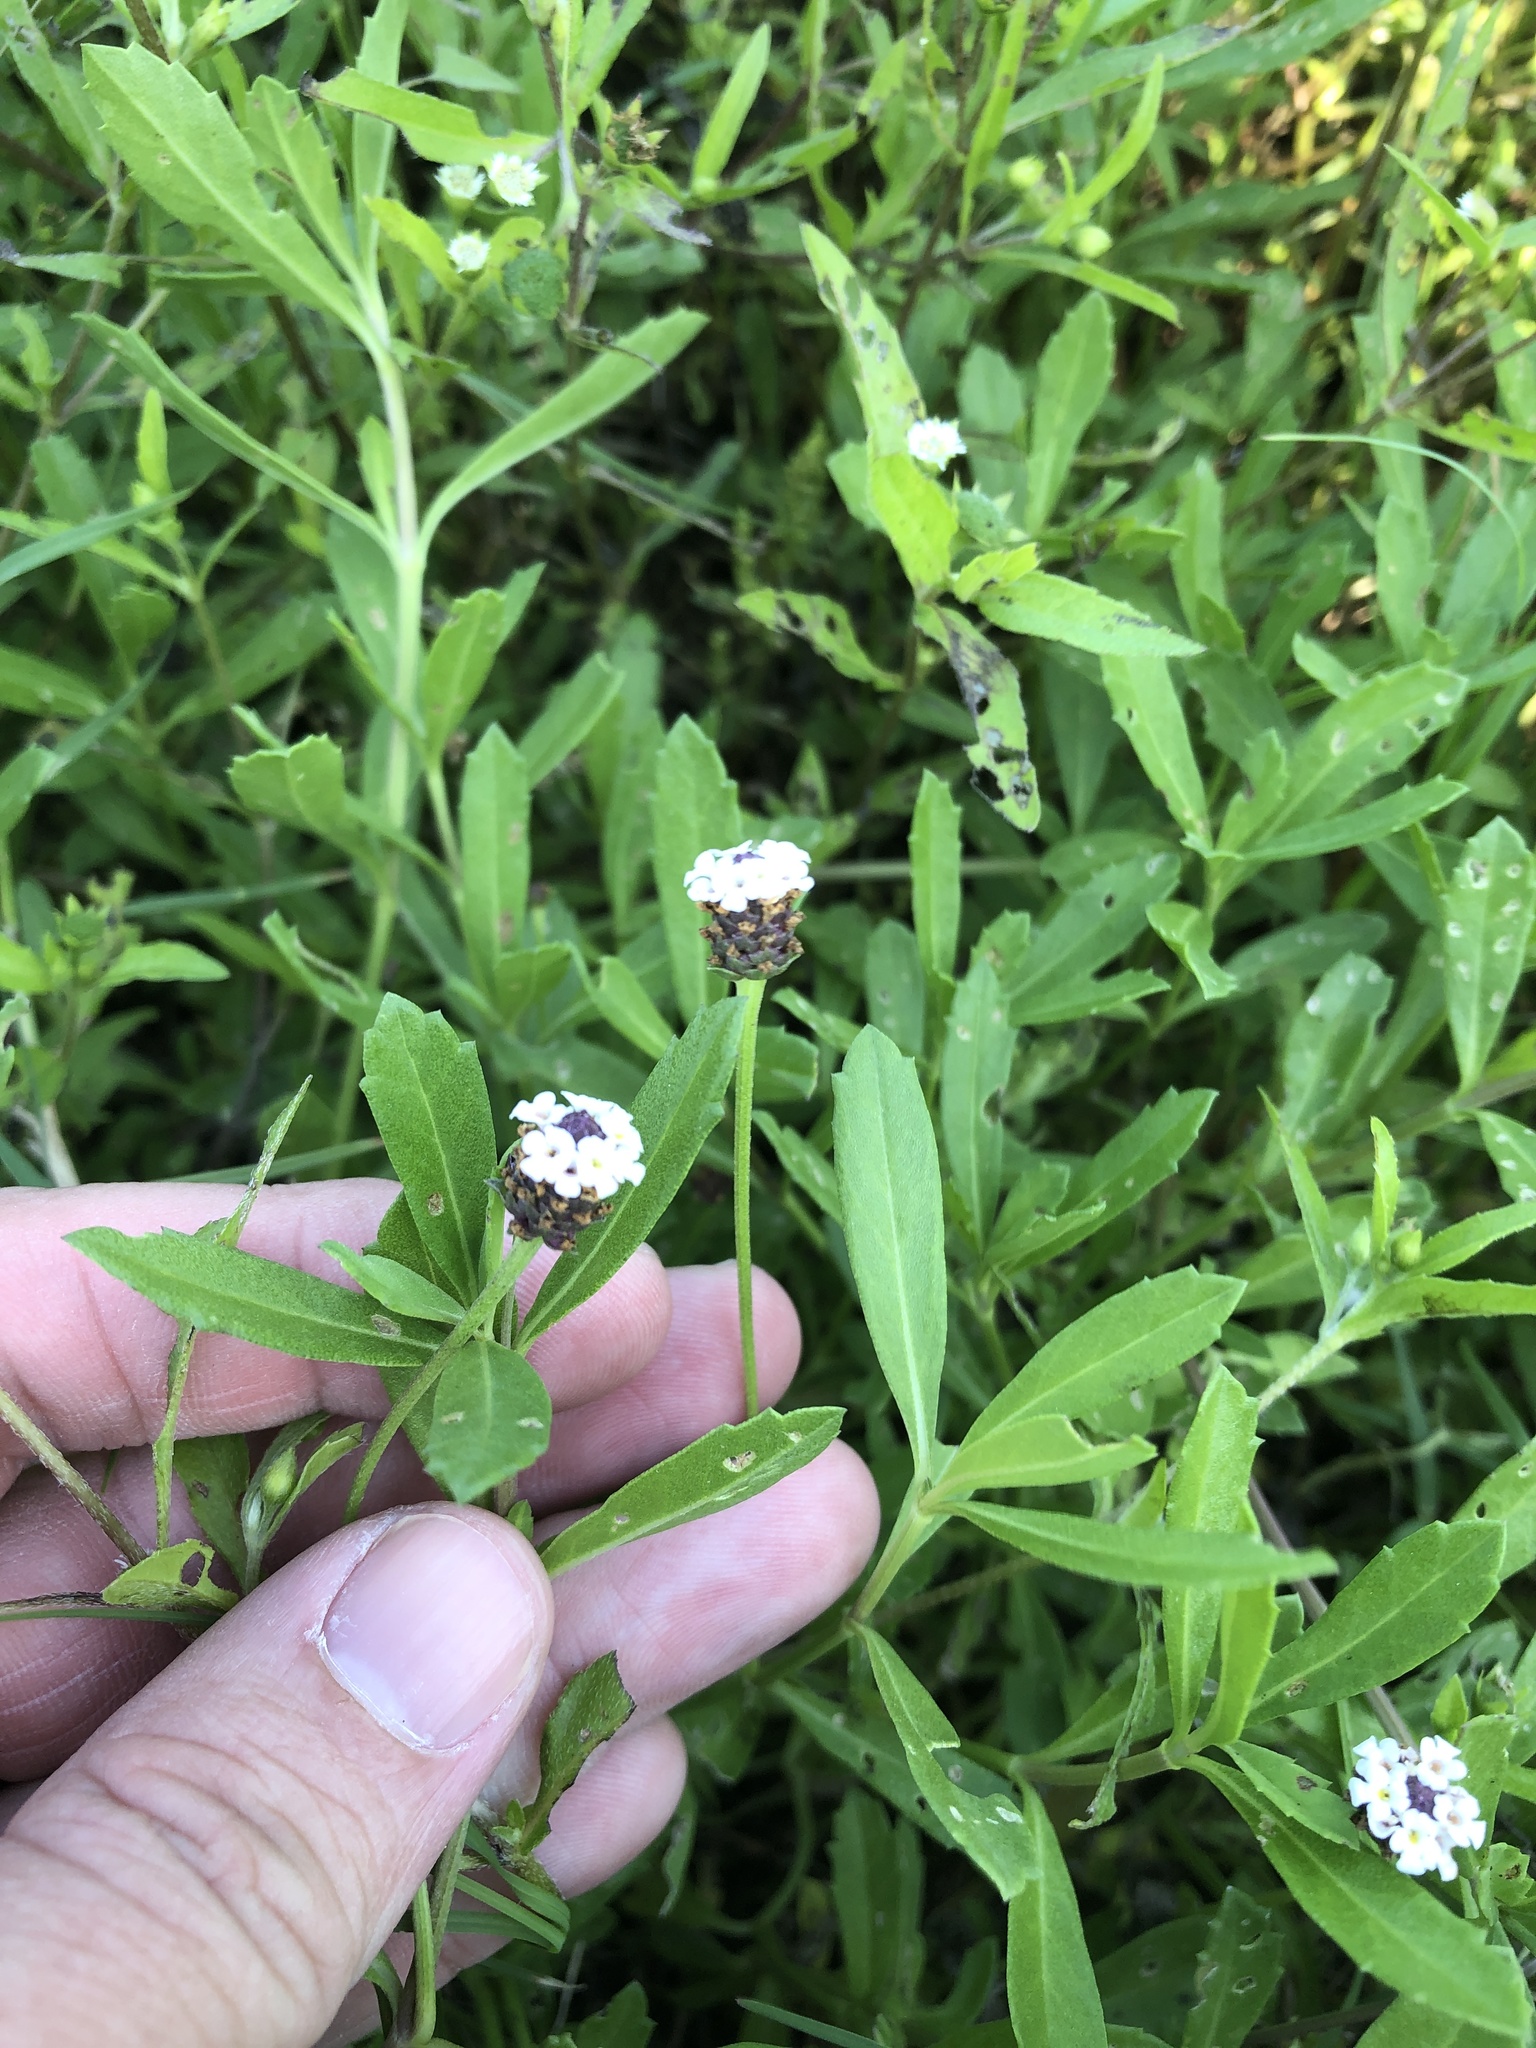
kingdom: Plantae
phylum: Tracheophyta
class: Magnoliopsida
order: Lamiales
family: Verbenaceae
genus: Phyla
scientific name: Phyla nodiflora
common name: Frogfruit
